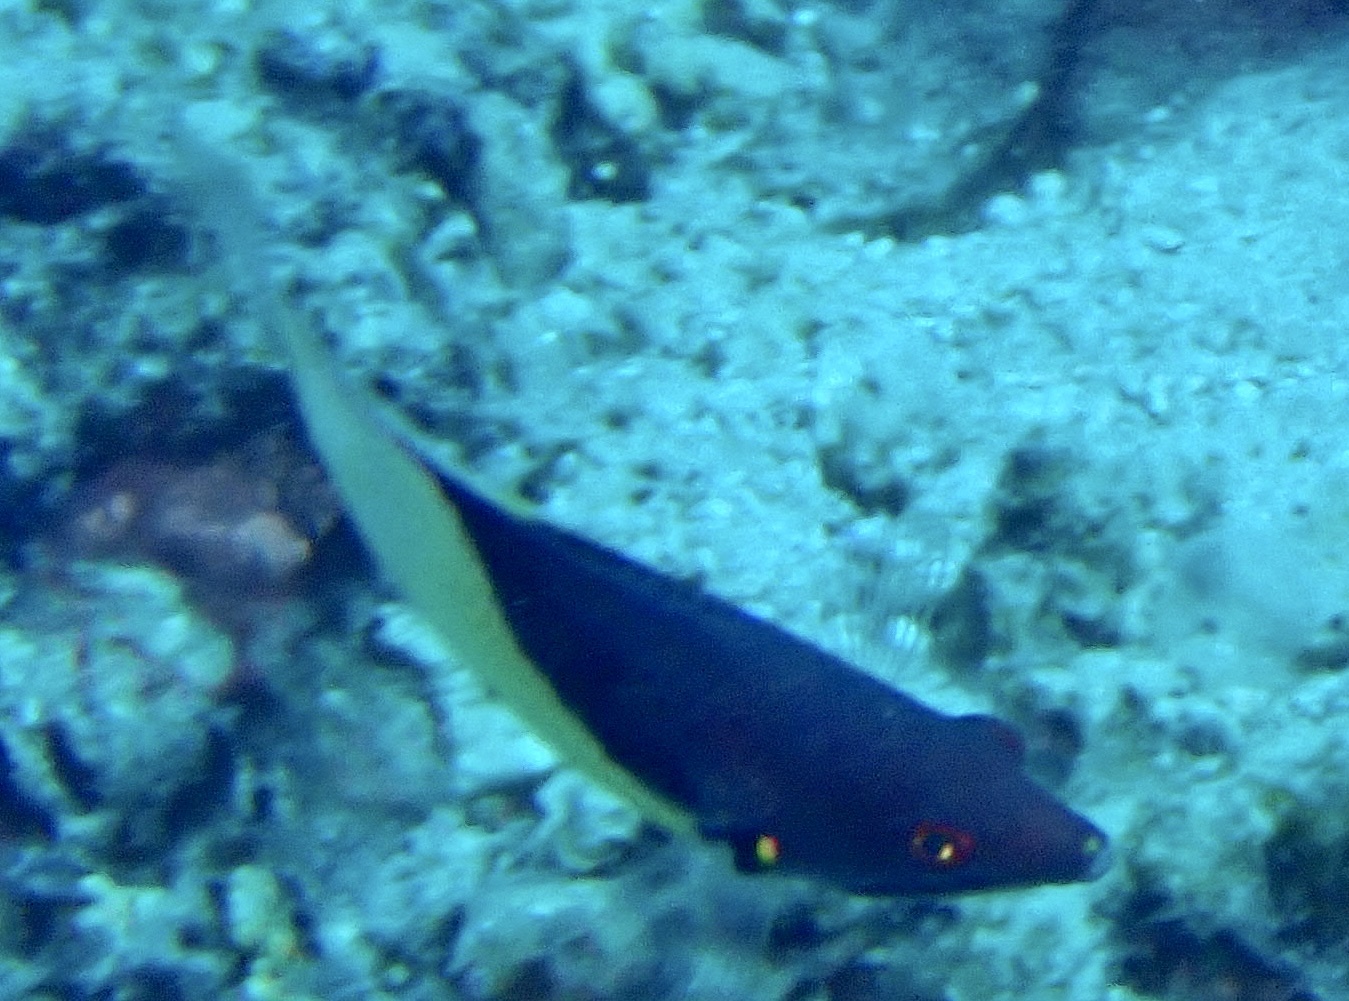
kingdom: Animalia
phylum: Chordata
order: Perciformes
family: Labridae
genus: Bodianus
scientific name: Bodianus mesothorax
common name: Coral hogfish
